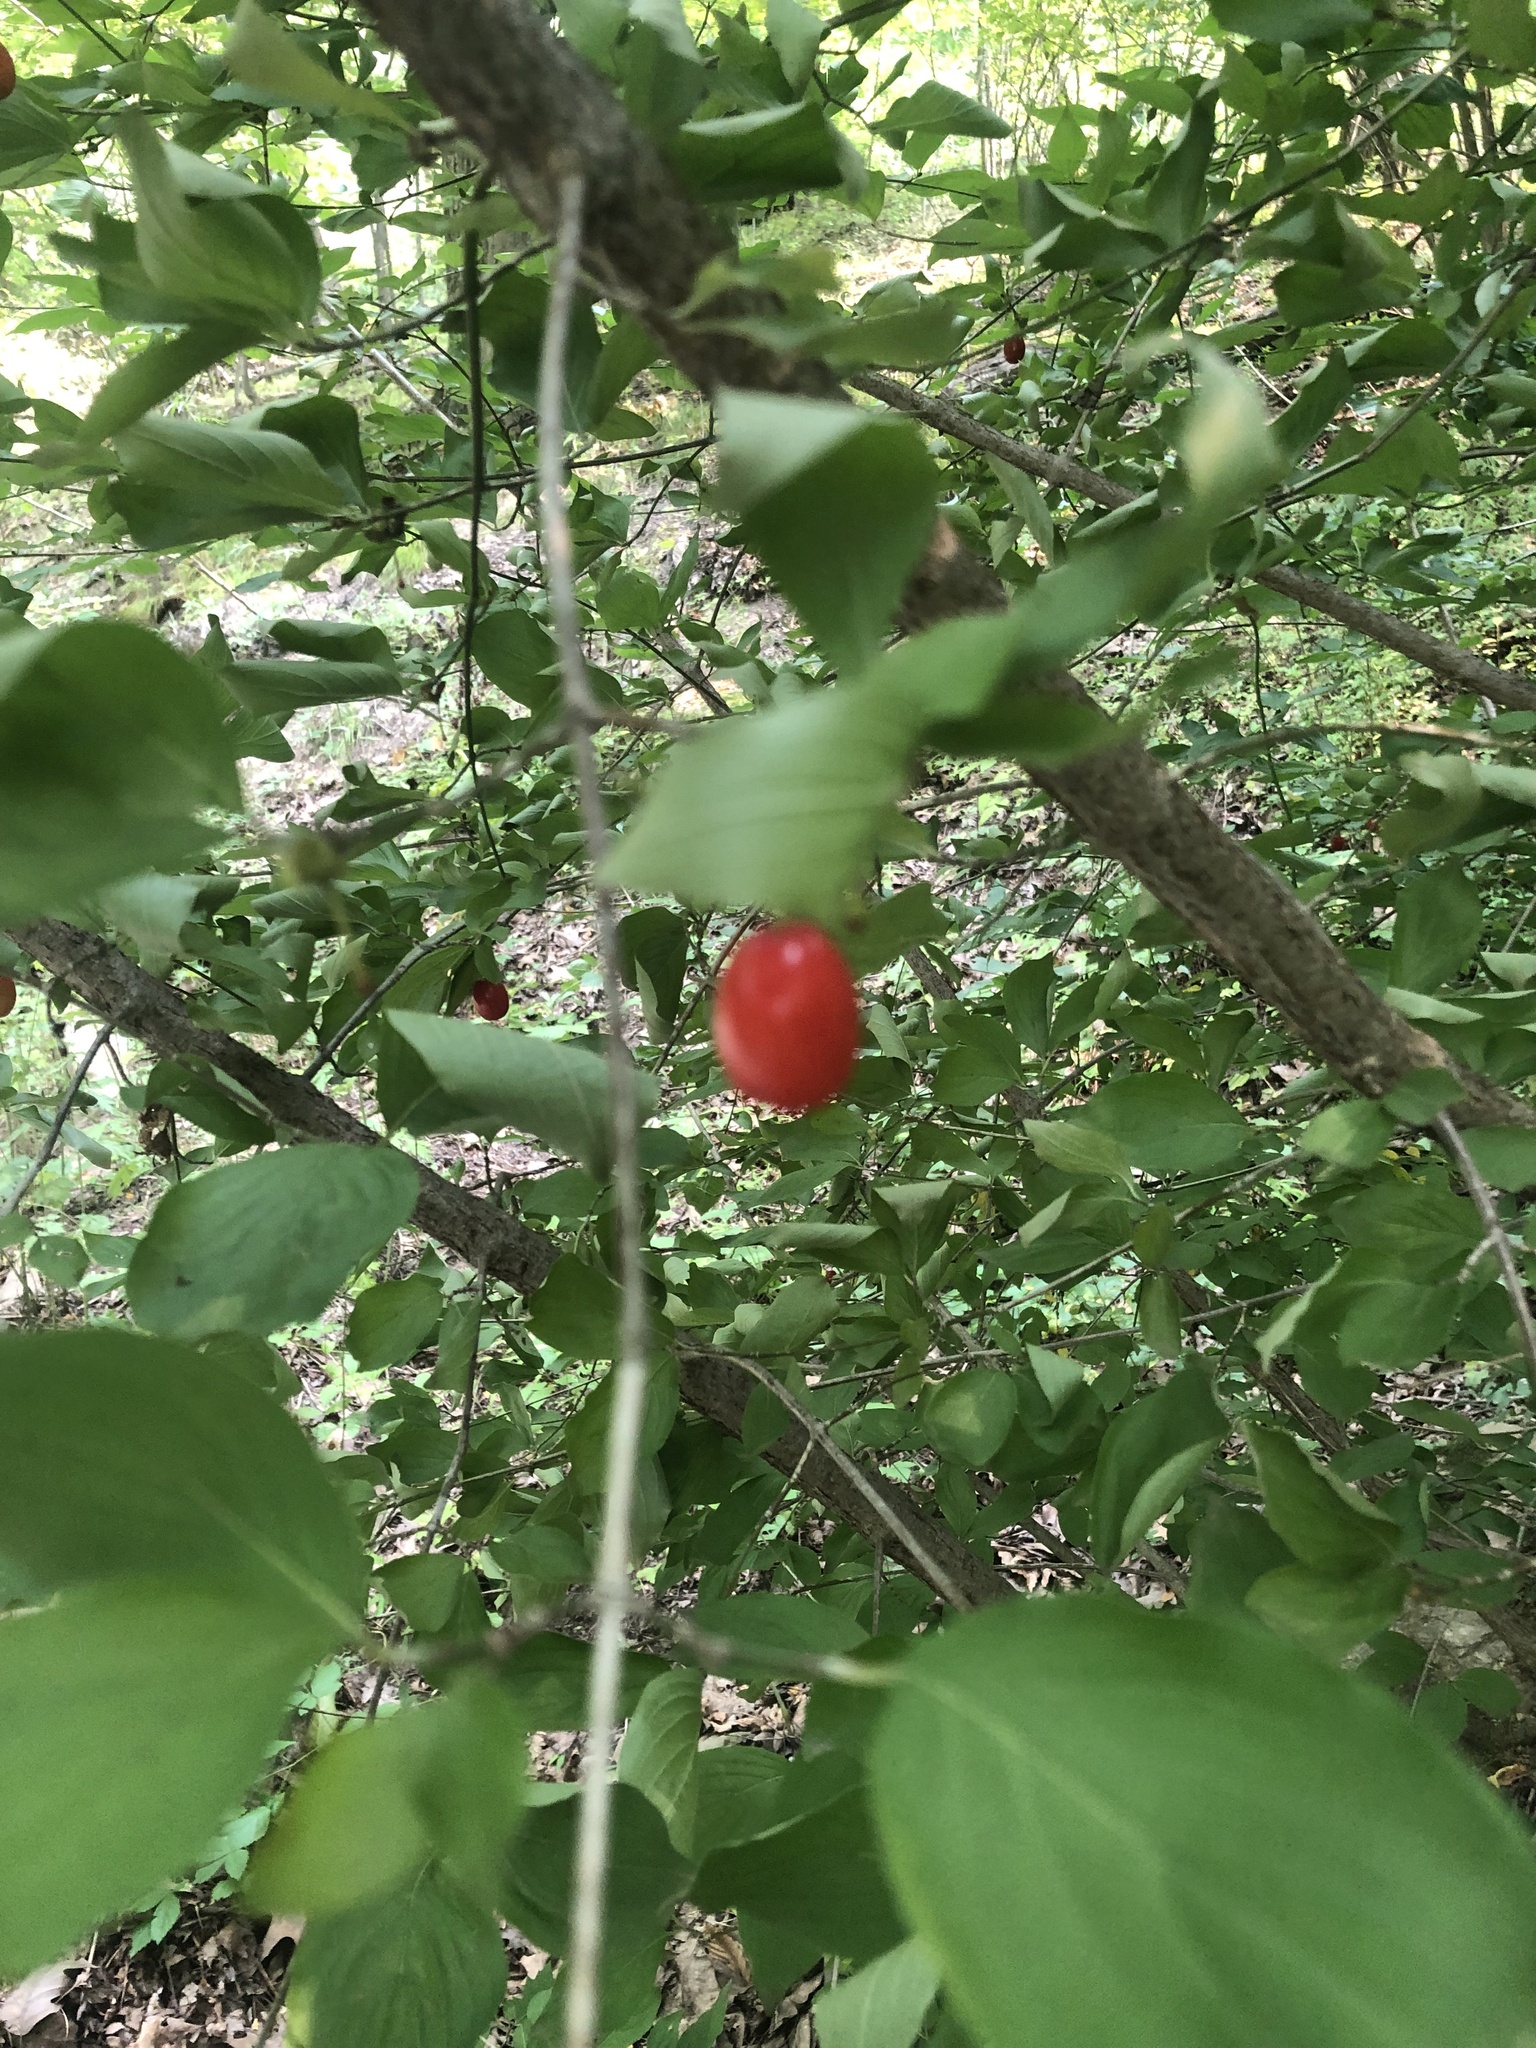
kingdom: Plantae
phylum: Tracheophyta
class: Magnoliopsida
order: Cornales
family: Cornaceae
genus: Cornus
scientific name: Cornus mas
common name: Cornelian-cherry
